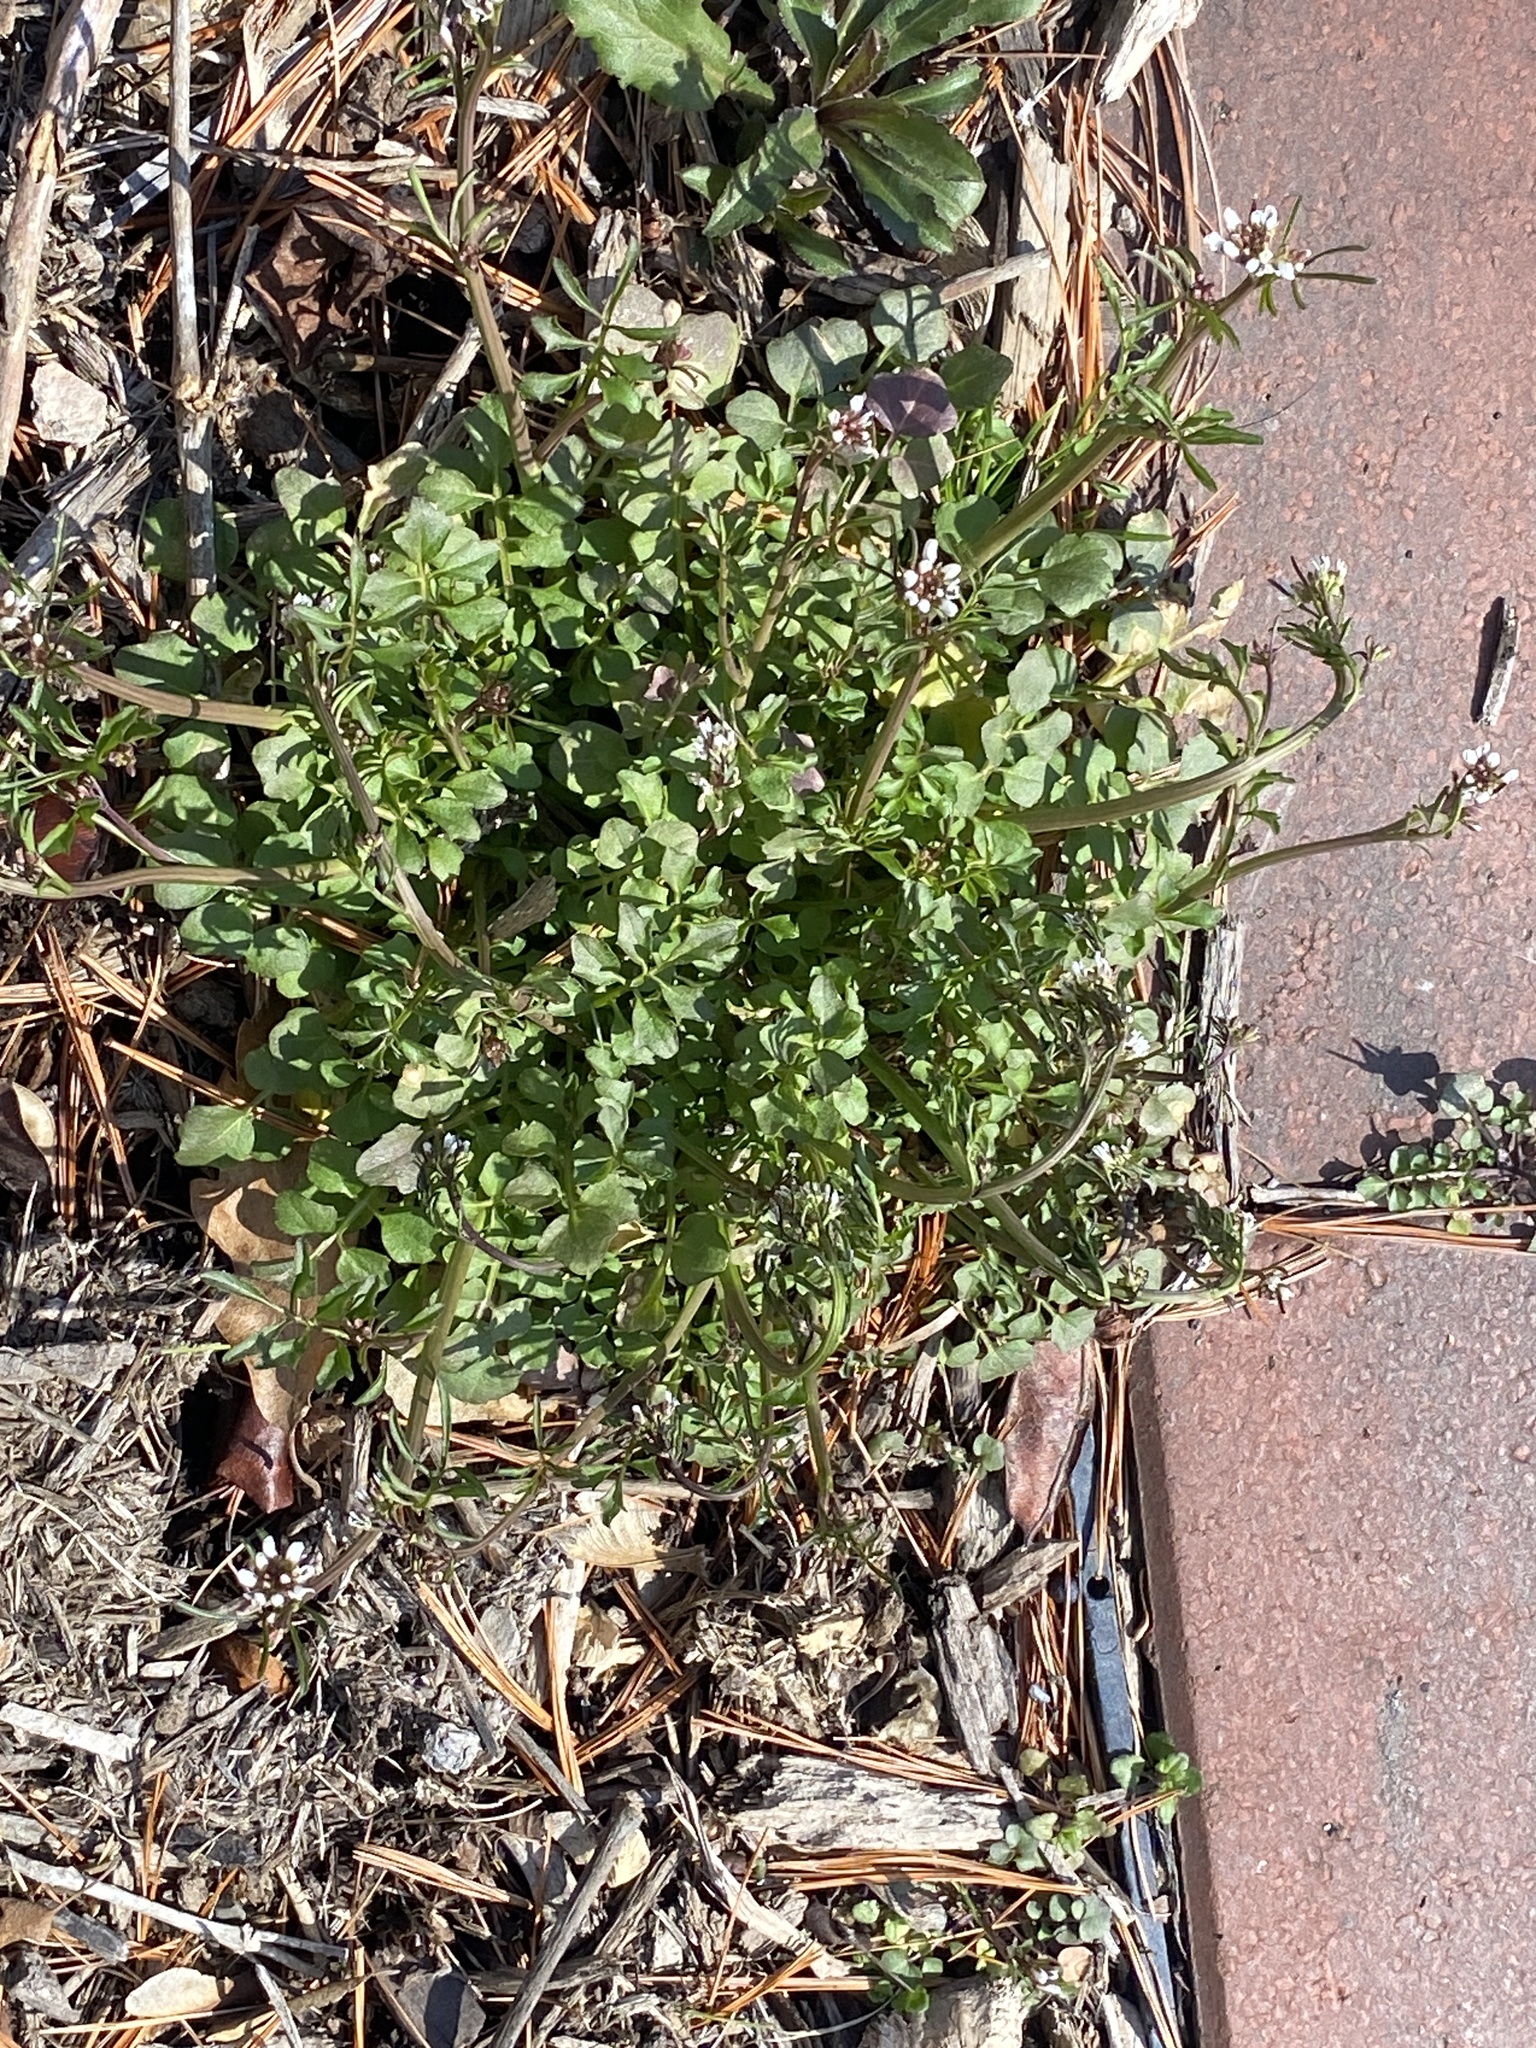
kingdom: Plantae
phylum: Tracheophyta
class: Magnoliopsida
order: Brassicales
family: Brassicaceae
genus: Cardamine
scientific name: Cardamine hirsuta
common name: Hairy bittercress
